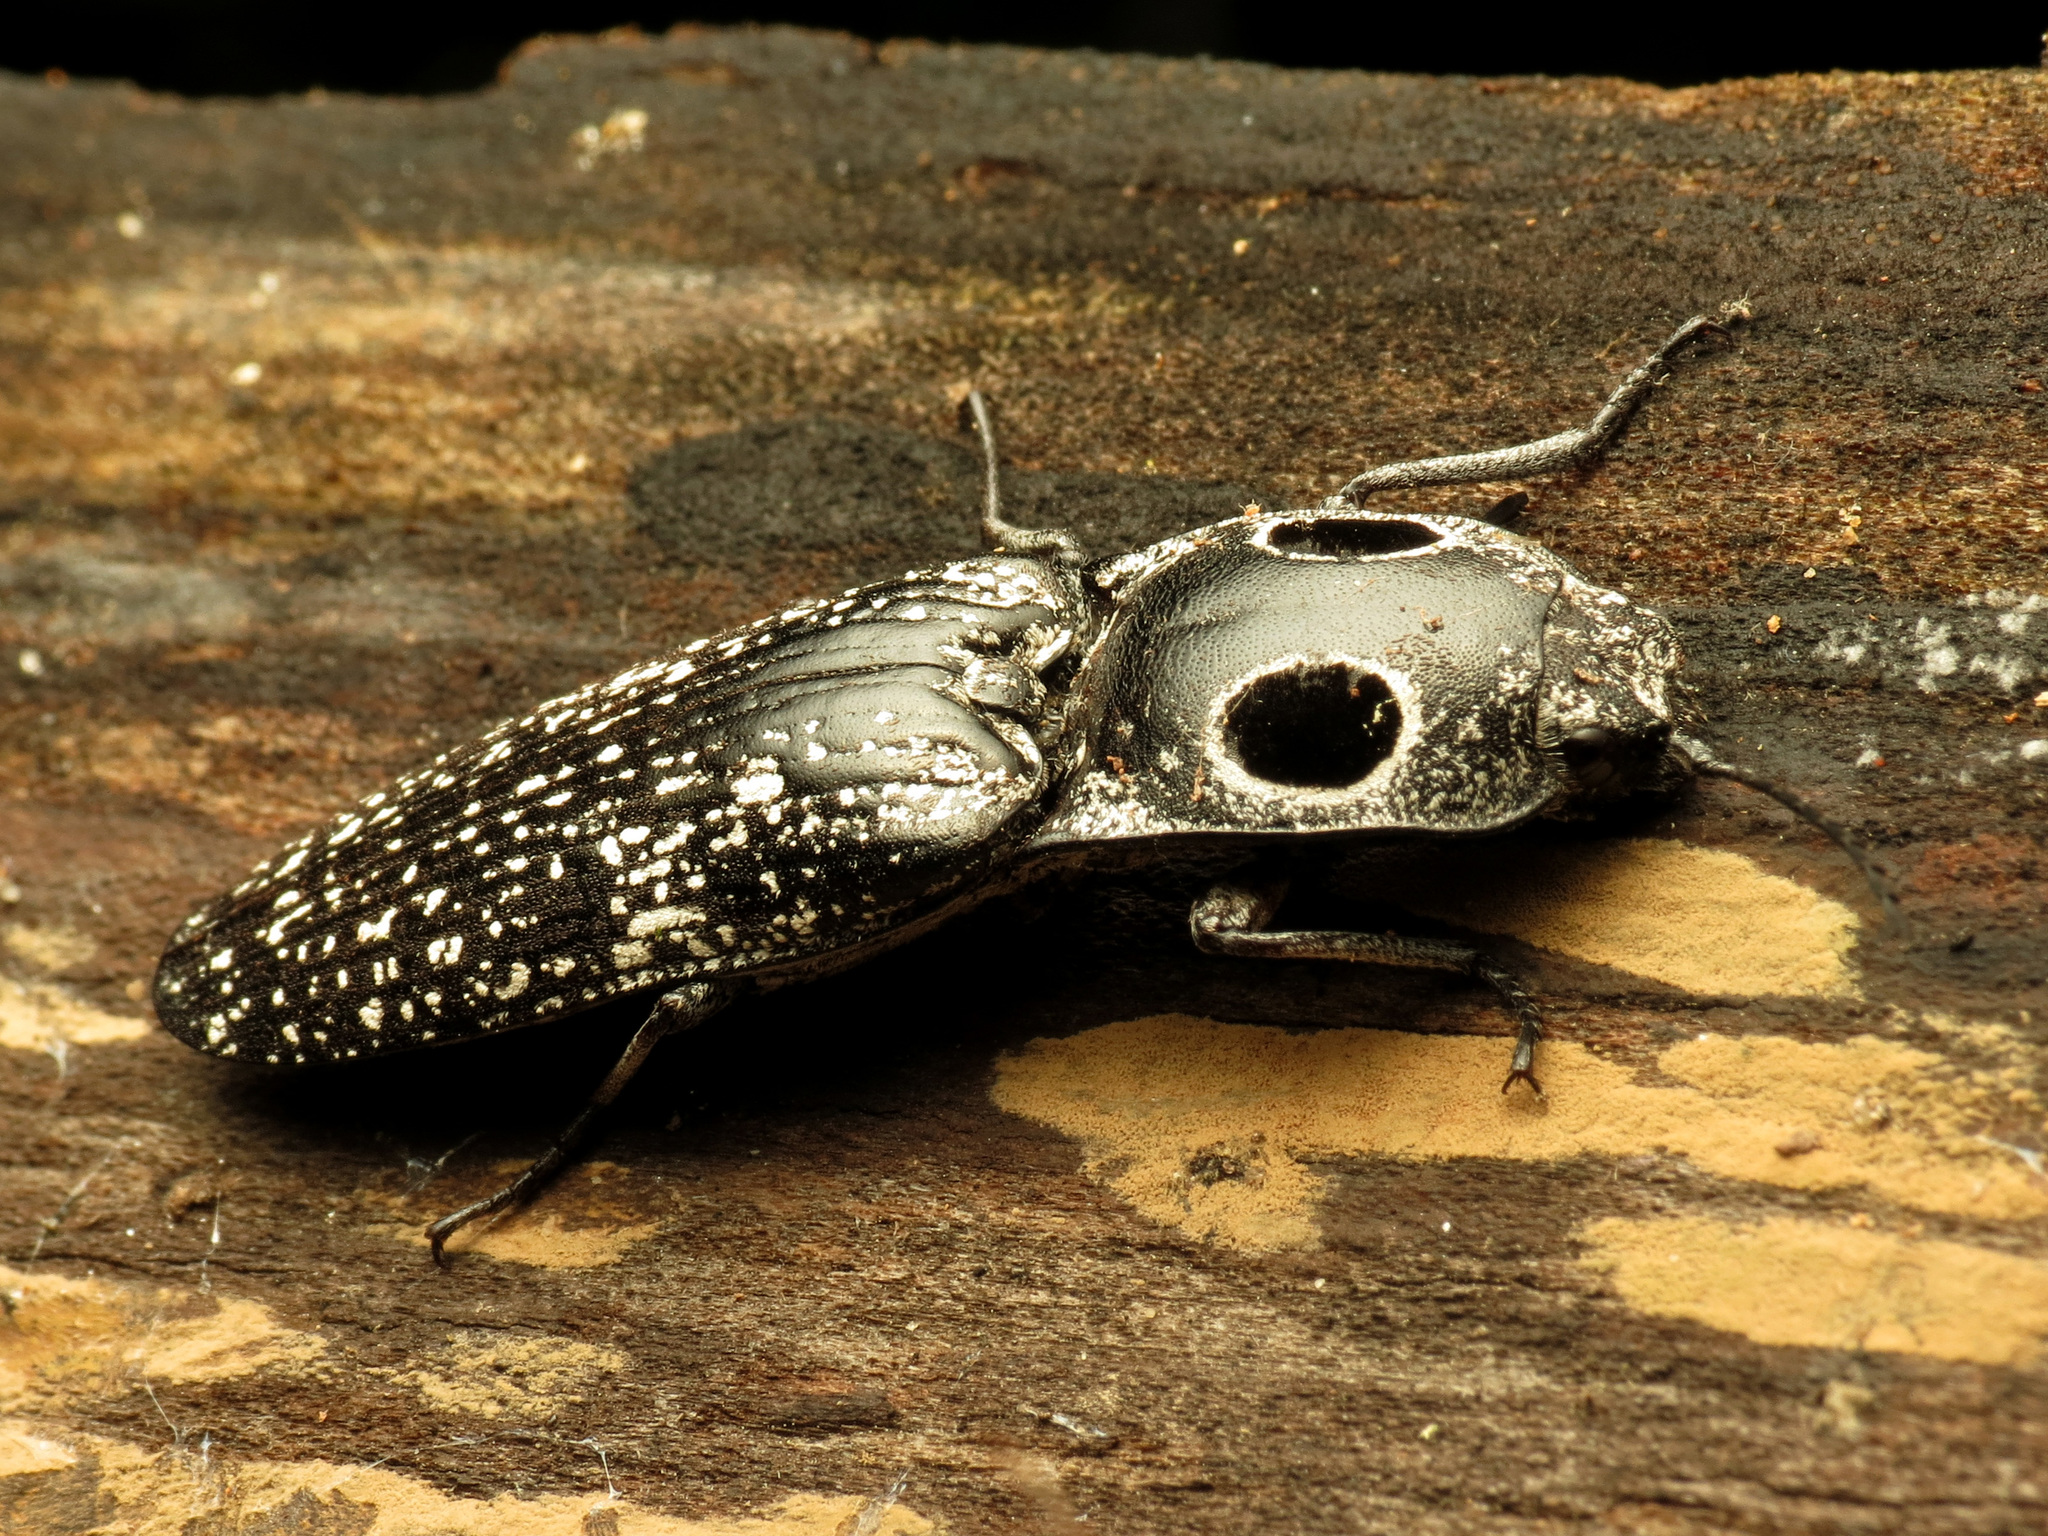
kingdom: Animalia
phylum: Arthropoda
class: Insecta
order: Coleoptera
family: Elateridae
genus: Alaus
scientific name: Alaus oculatus
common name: Eastern eyed click beetle
